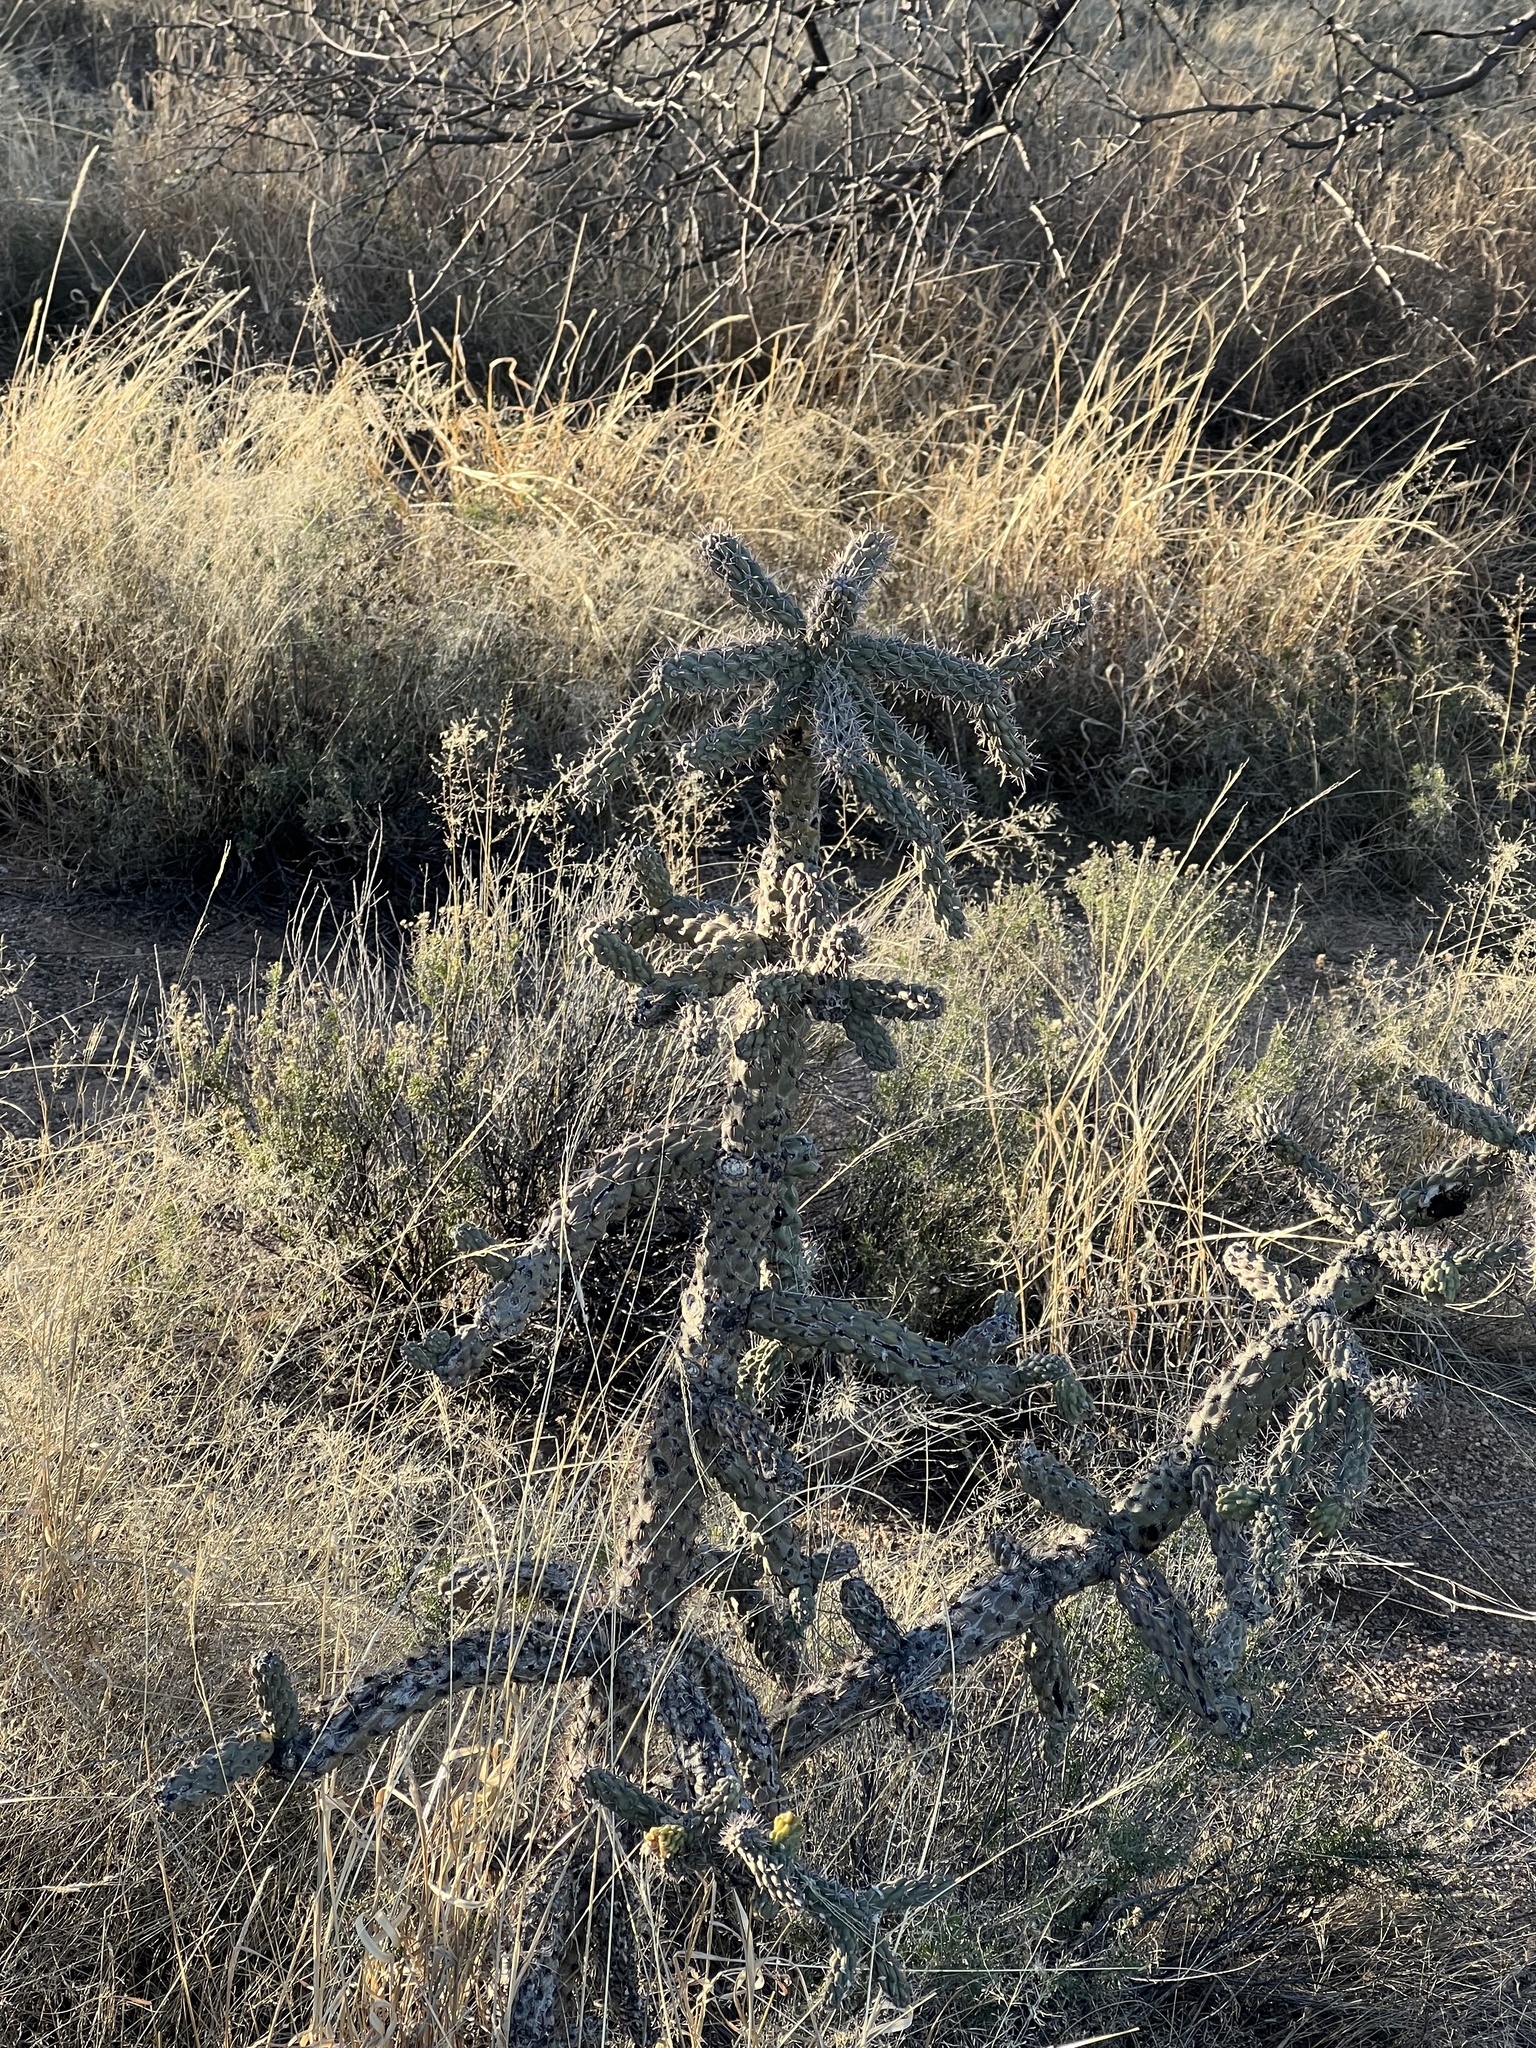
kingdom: Plantae
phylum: Tracheophyta
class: Magnoliopsida
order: Caryophyllales
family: Cactaceae
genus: Cylindropuntia
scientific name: Cylindropuntia imbricata
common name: Candelabrum cactus
